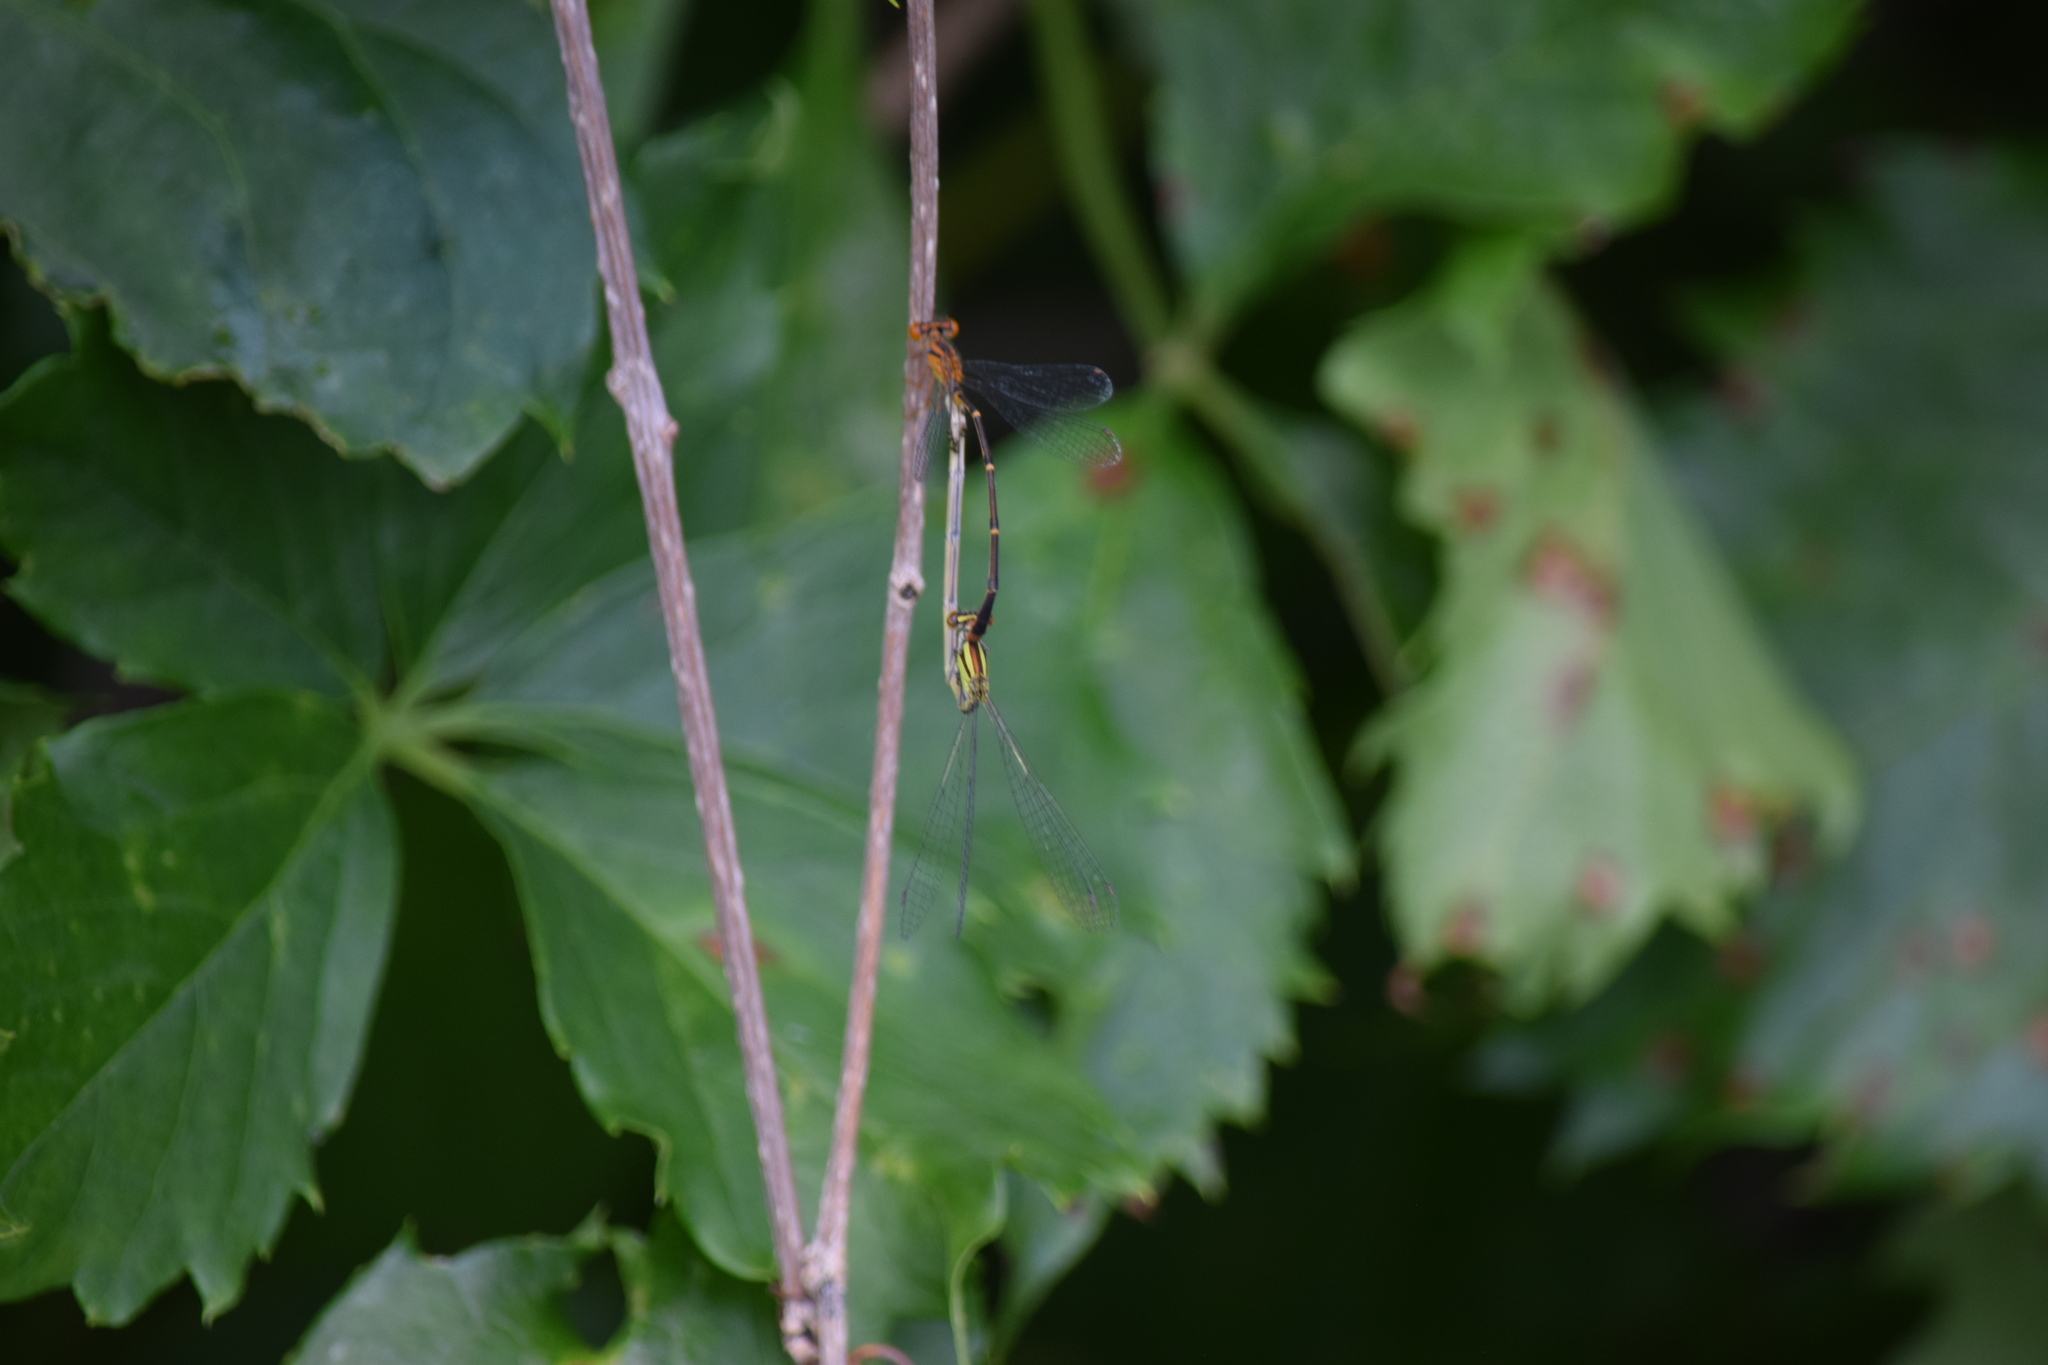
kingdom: Animalia
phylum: Arthropoda
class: Insecta
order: Odonata
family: Coenagrionidae
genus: Enallagma
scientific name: Enallagma signatum
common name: Orange bluet
